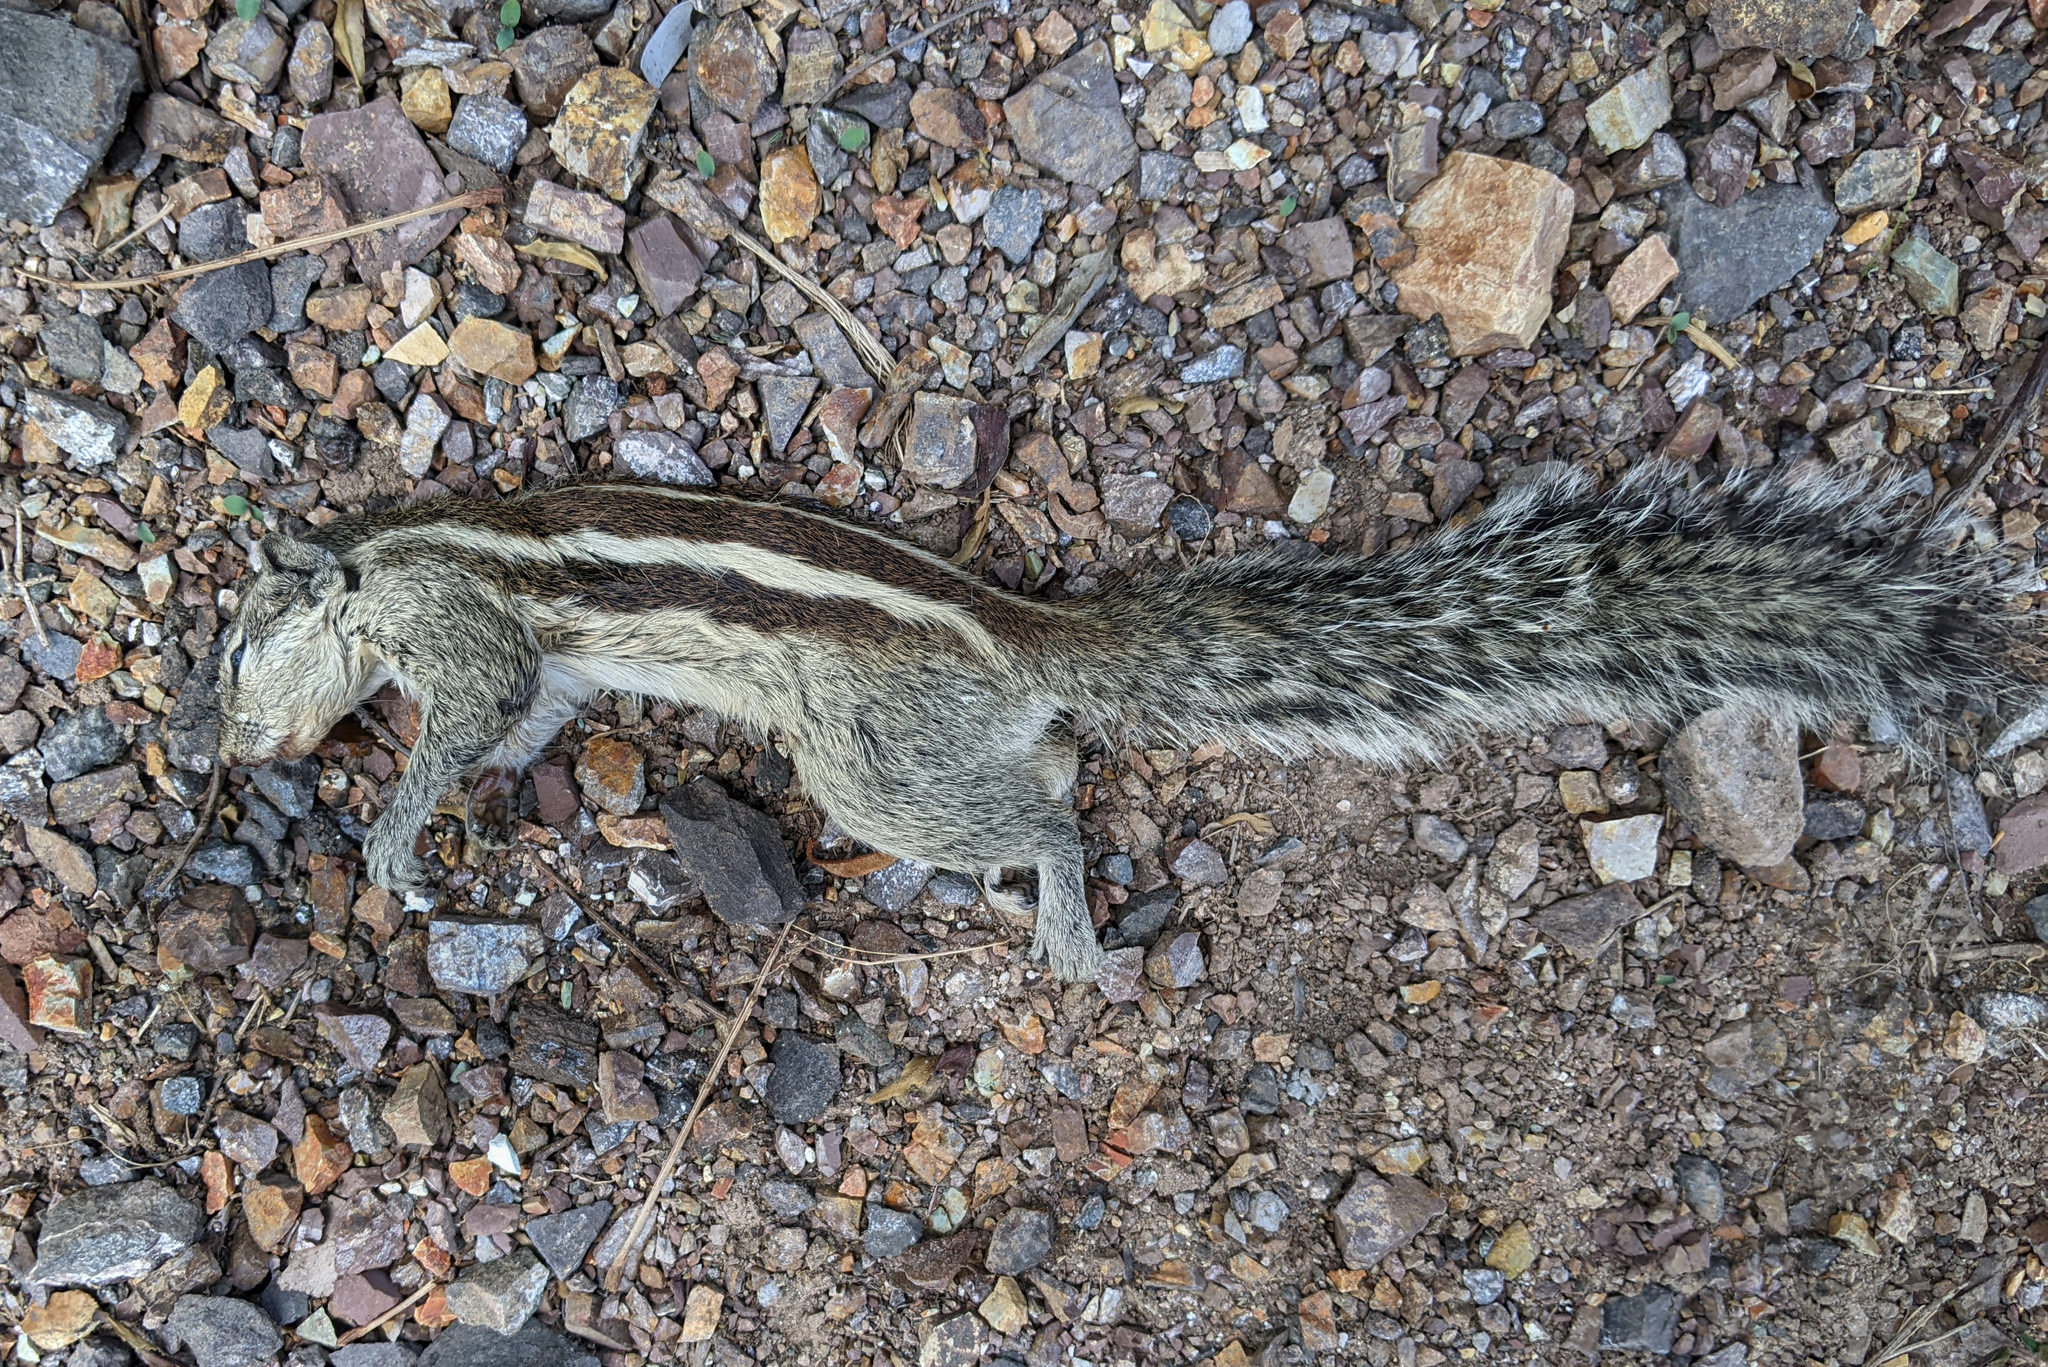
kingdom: Animalia
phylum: Chordata
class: Mammalia
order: Rodentia
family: Sciuridae
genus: Funambulus
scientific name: Funambulus pennantii
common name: Northern palm squirrel
